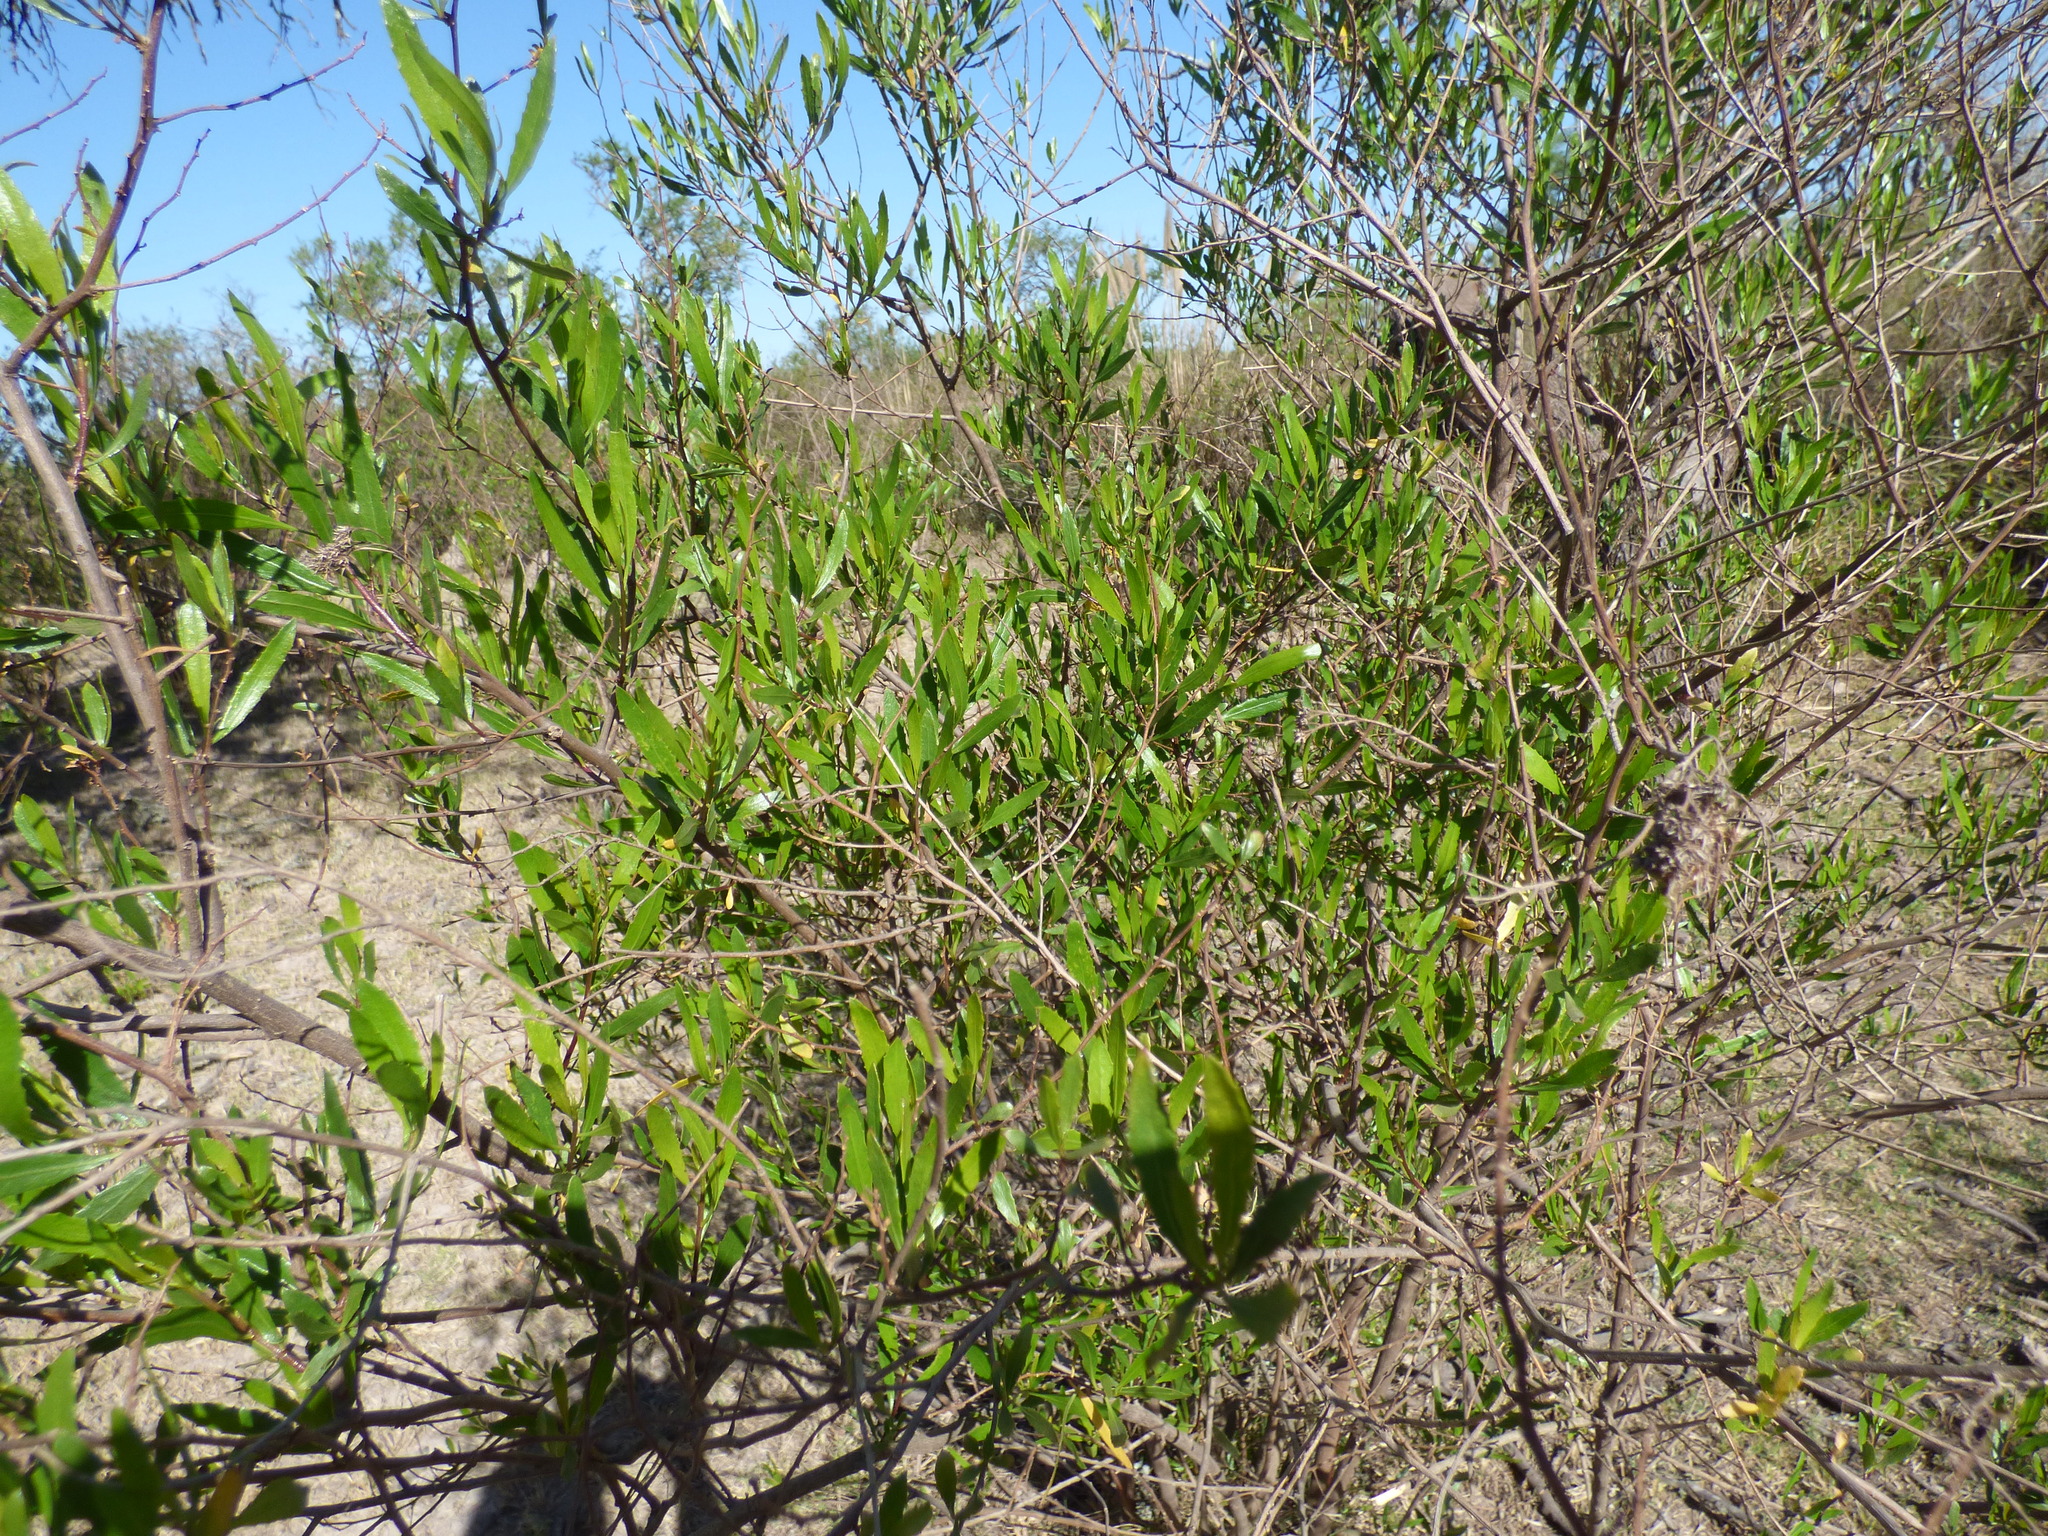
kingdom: Plantae
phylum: Tracheophyta
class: Magnoliopsida
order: Asterales
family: Asteraceae
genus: Tessaria
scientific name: Tessaria dodonaeifolia
